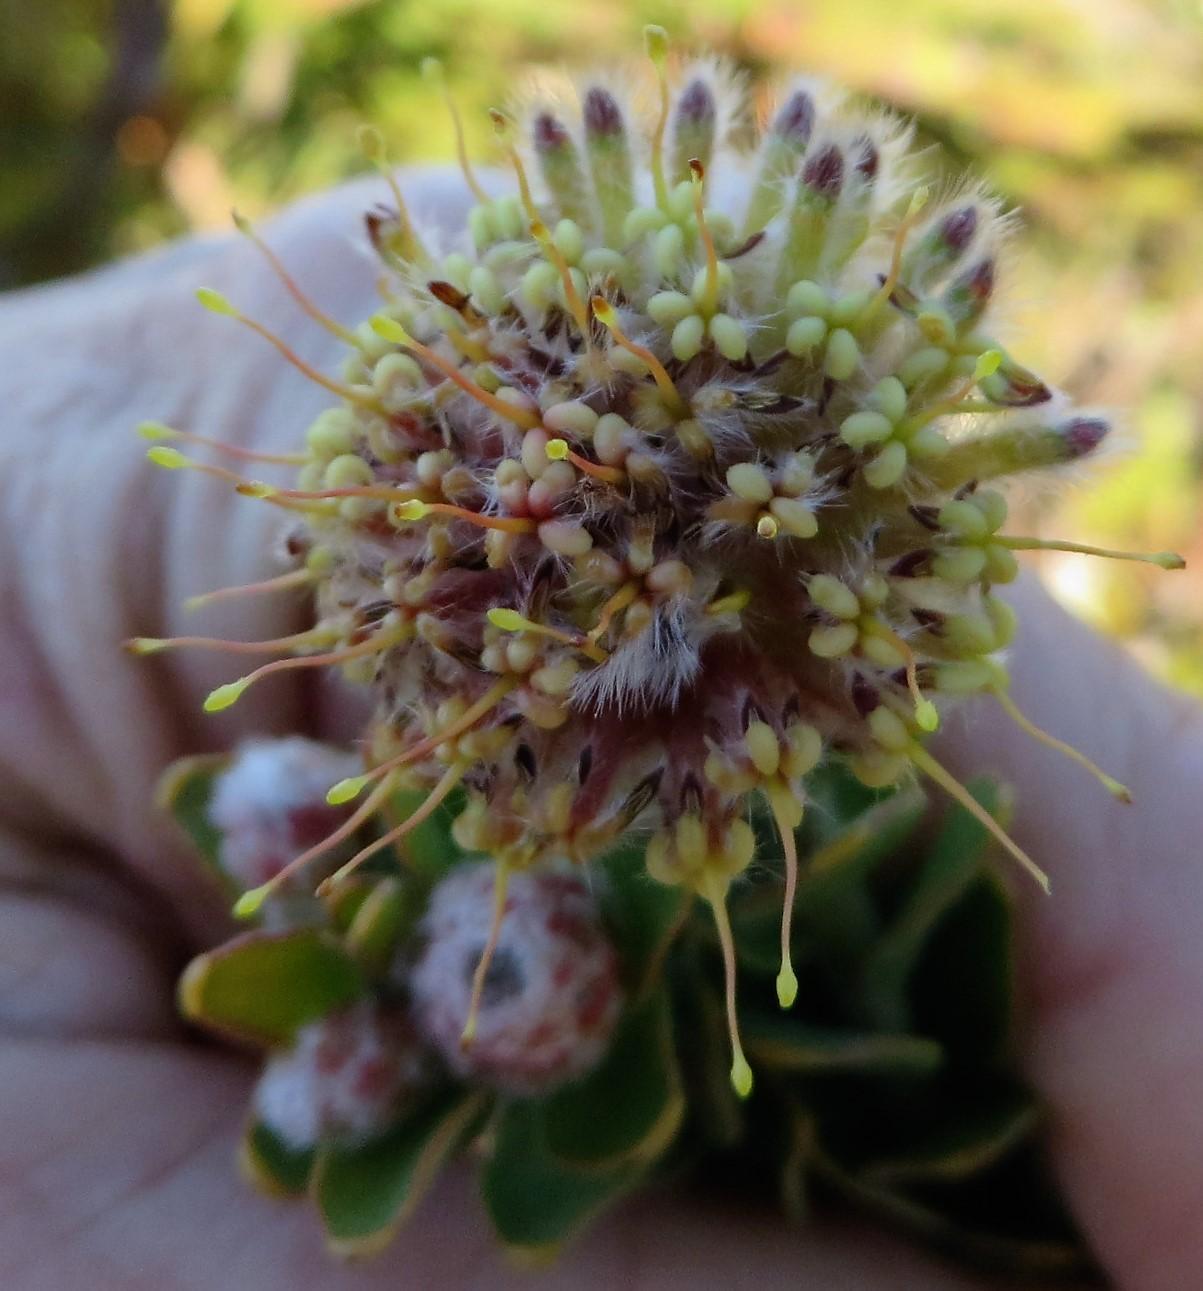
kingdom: Plantae
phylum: Tracheophyta
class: Magnoliopsida
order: Proteales
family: Proteaceae
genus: Leucospermum
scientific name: Leucospermum truncatulum
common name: Oval-leaf pincushion
